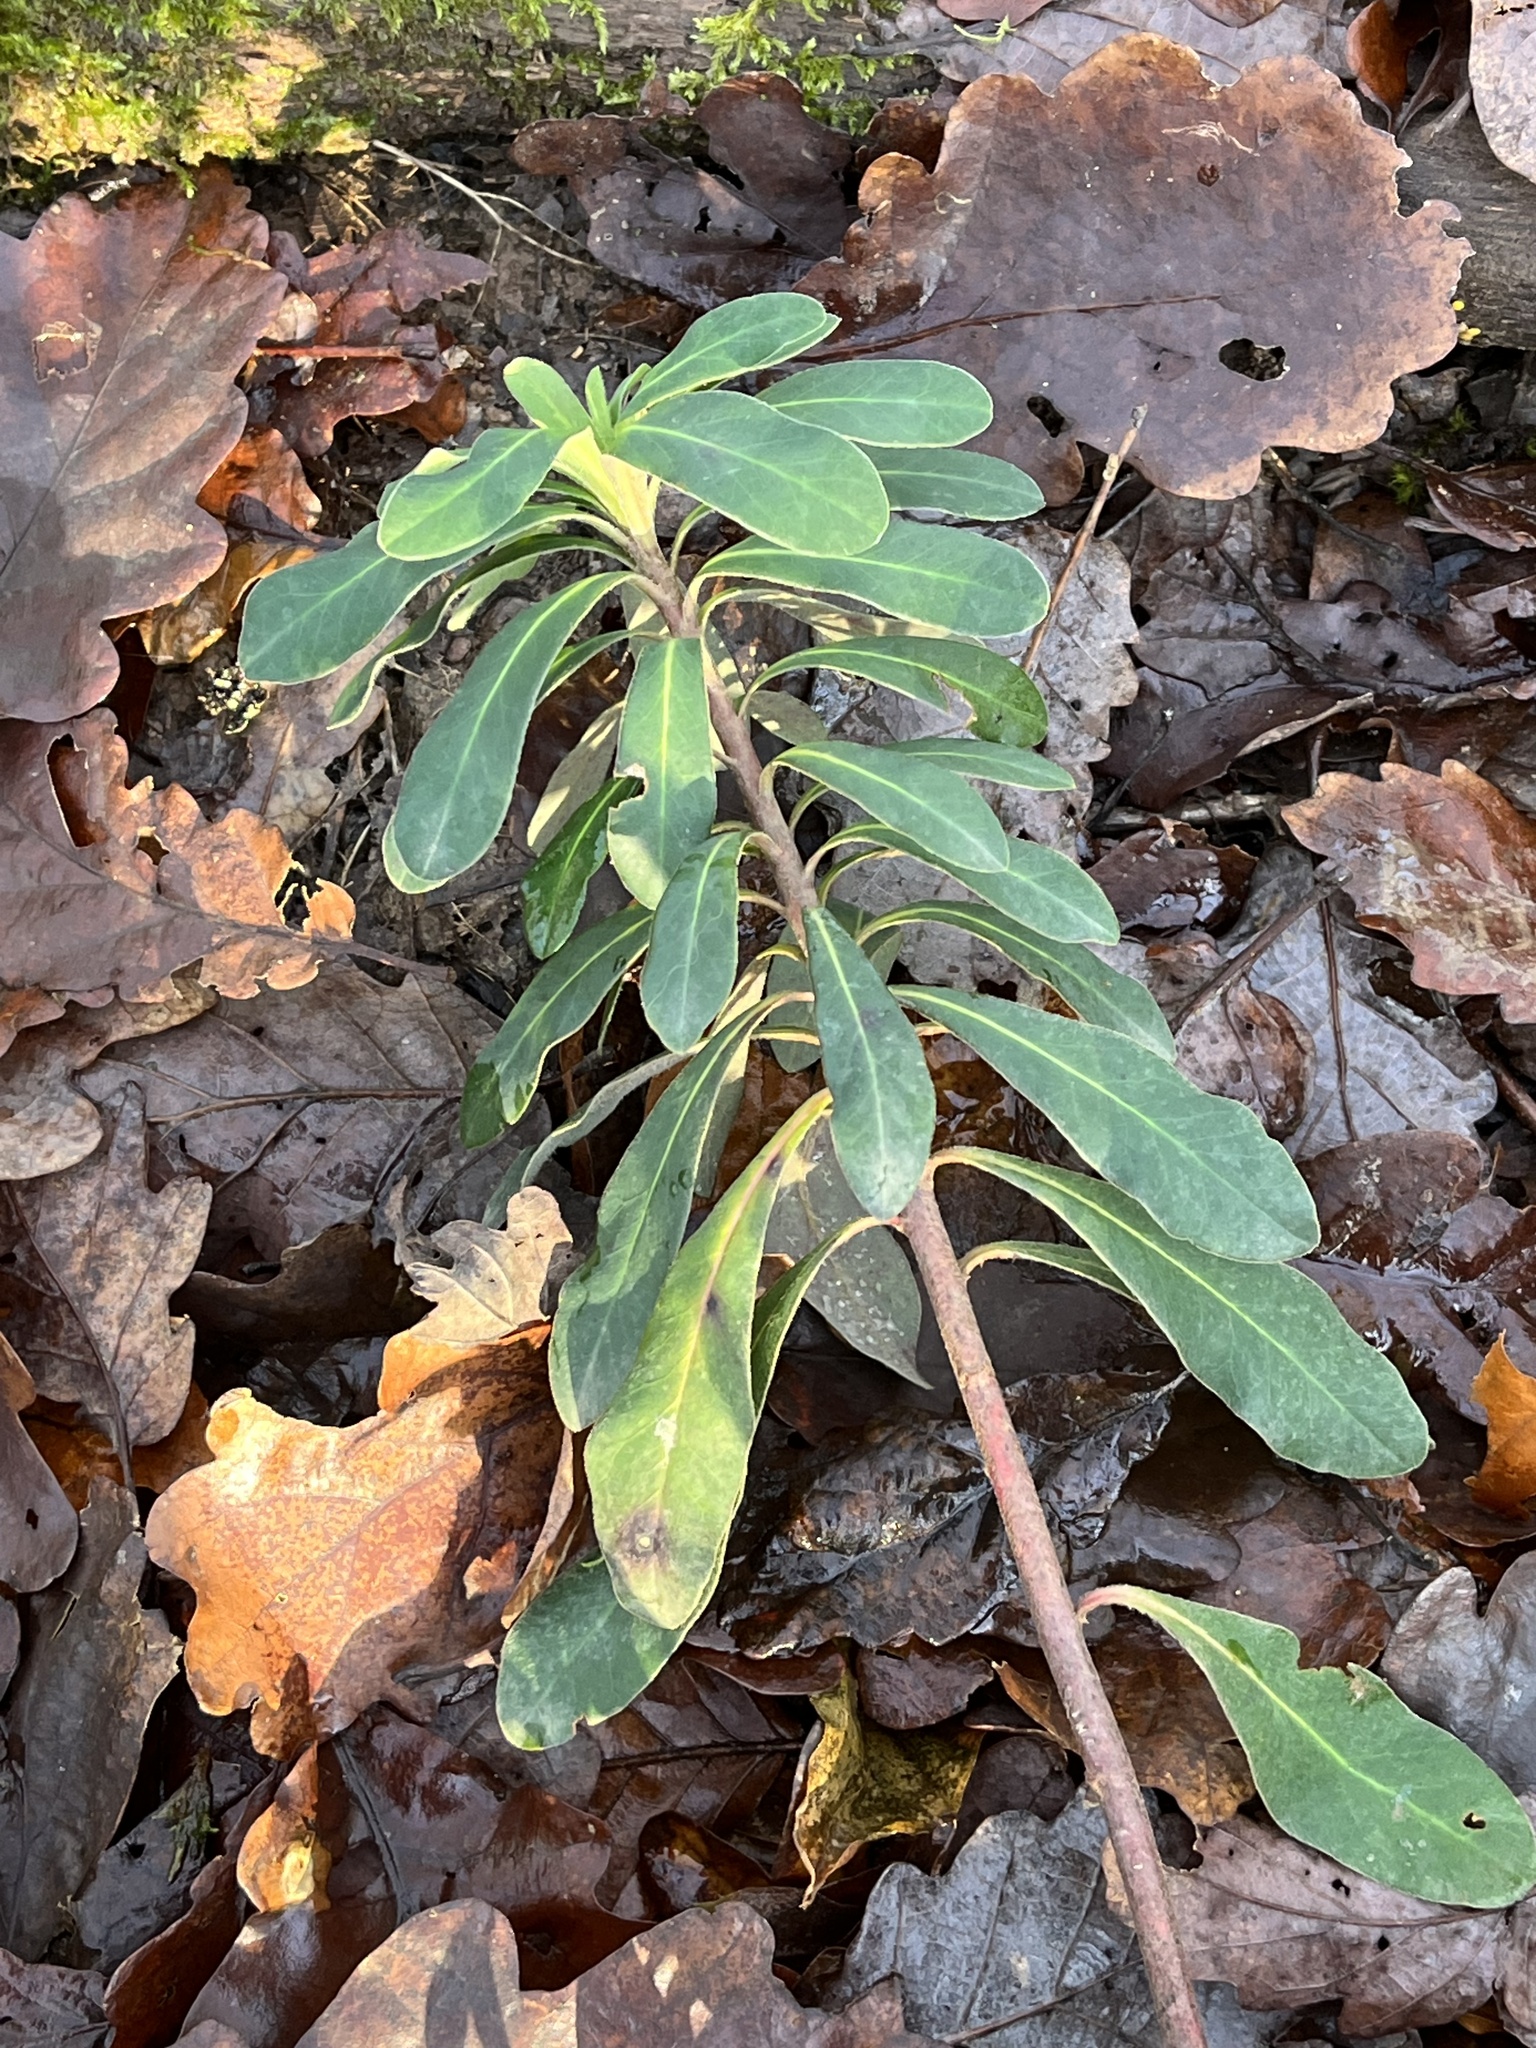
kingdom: Plantae
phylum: Tracheophyta
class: Magnoliopsida
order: Malpighiales
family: Euphorbiaceae
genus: Euphorbia
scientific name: Euphorbia amygdaloides
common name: Wood spurge
